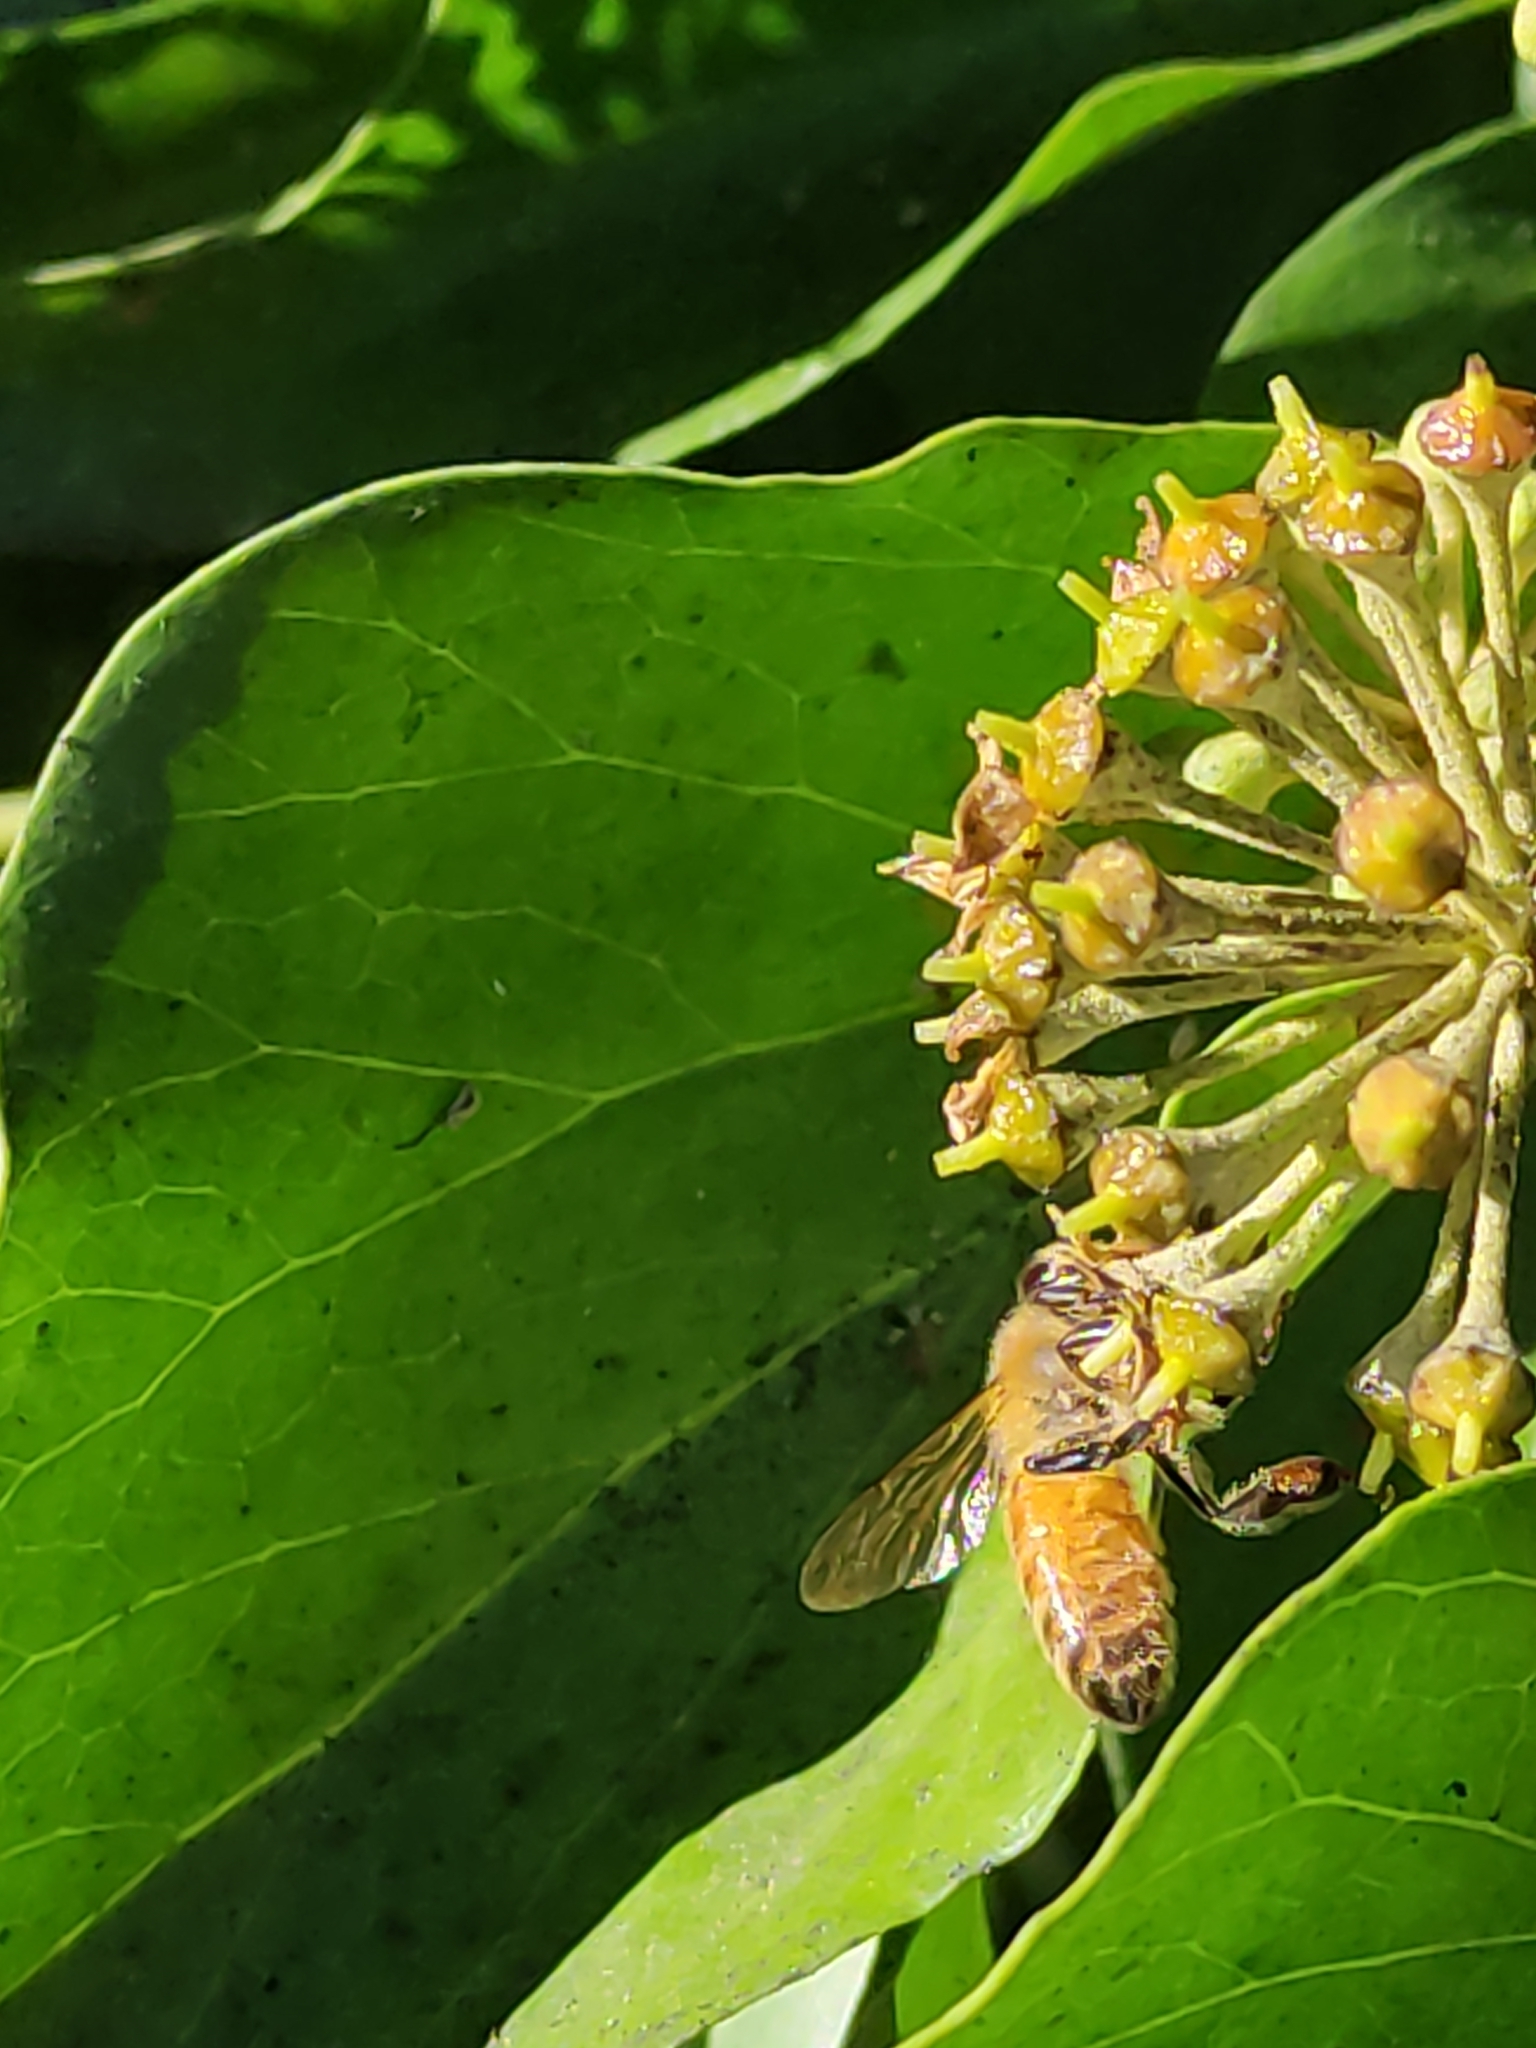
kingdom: Animalia
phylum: Arthropoda
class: Insecta
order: Hymenoptera
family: Apidae
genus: Apis
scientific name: Apis mellifera
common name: Honey bee
